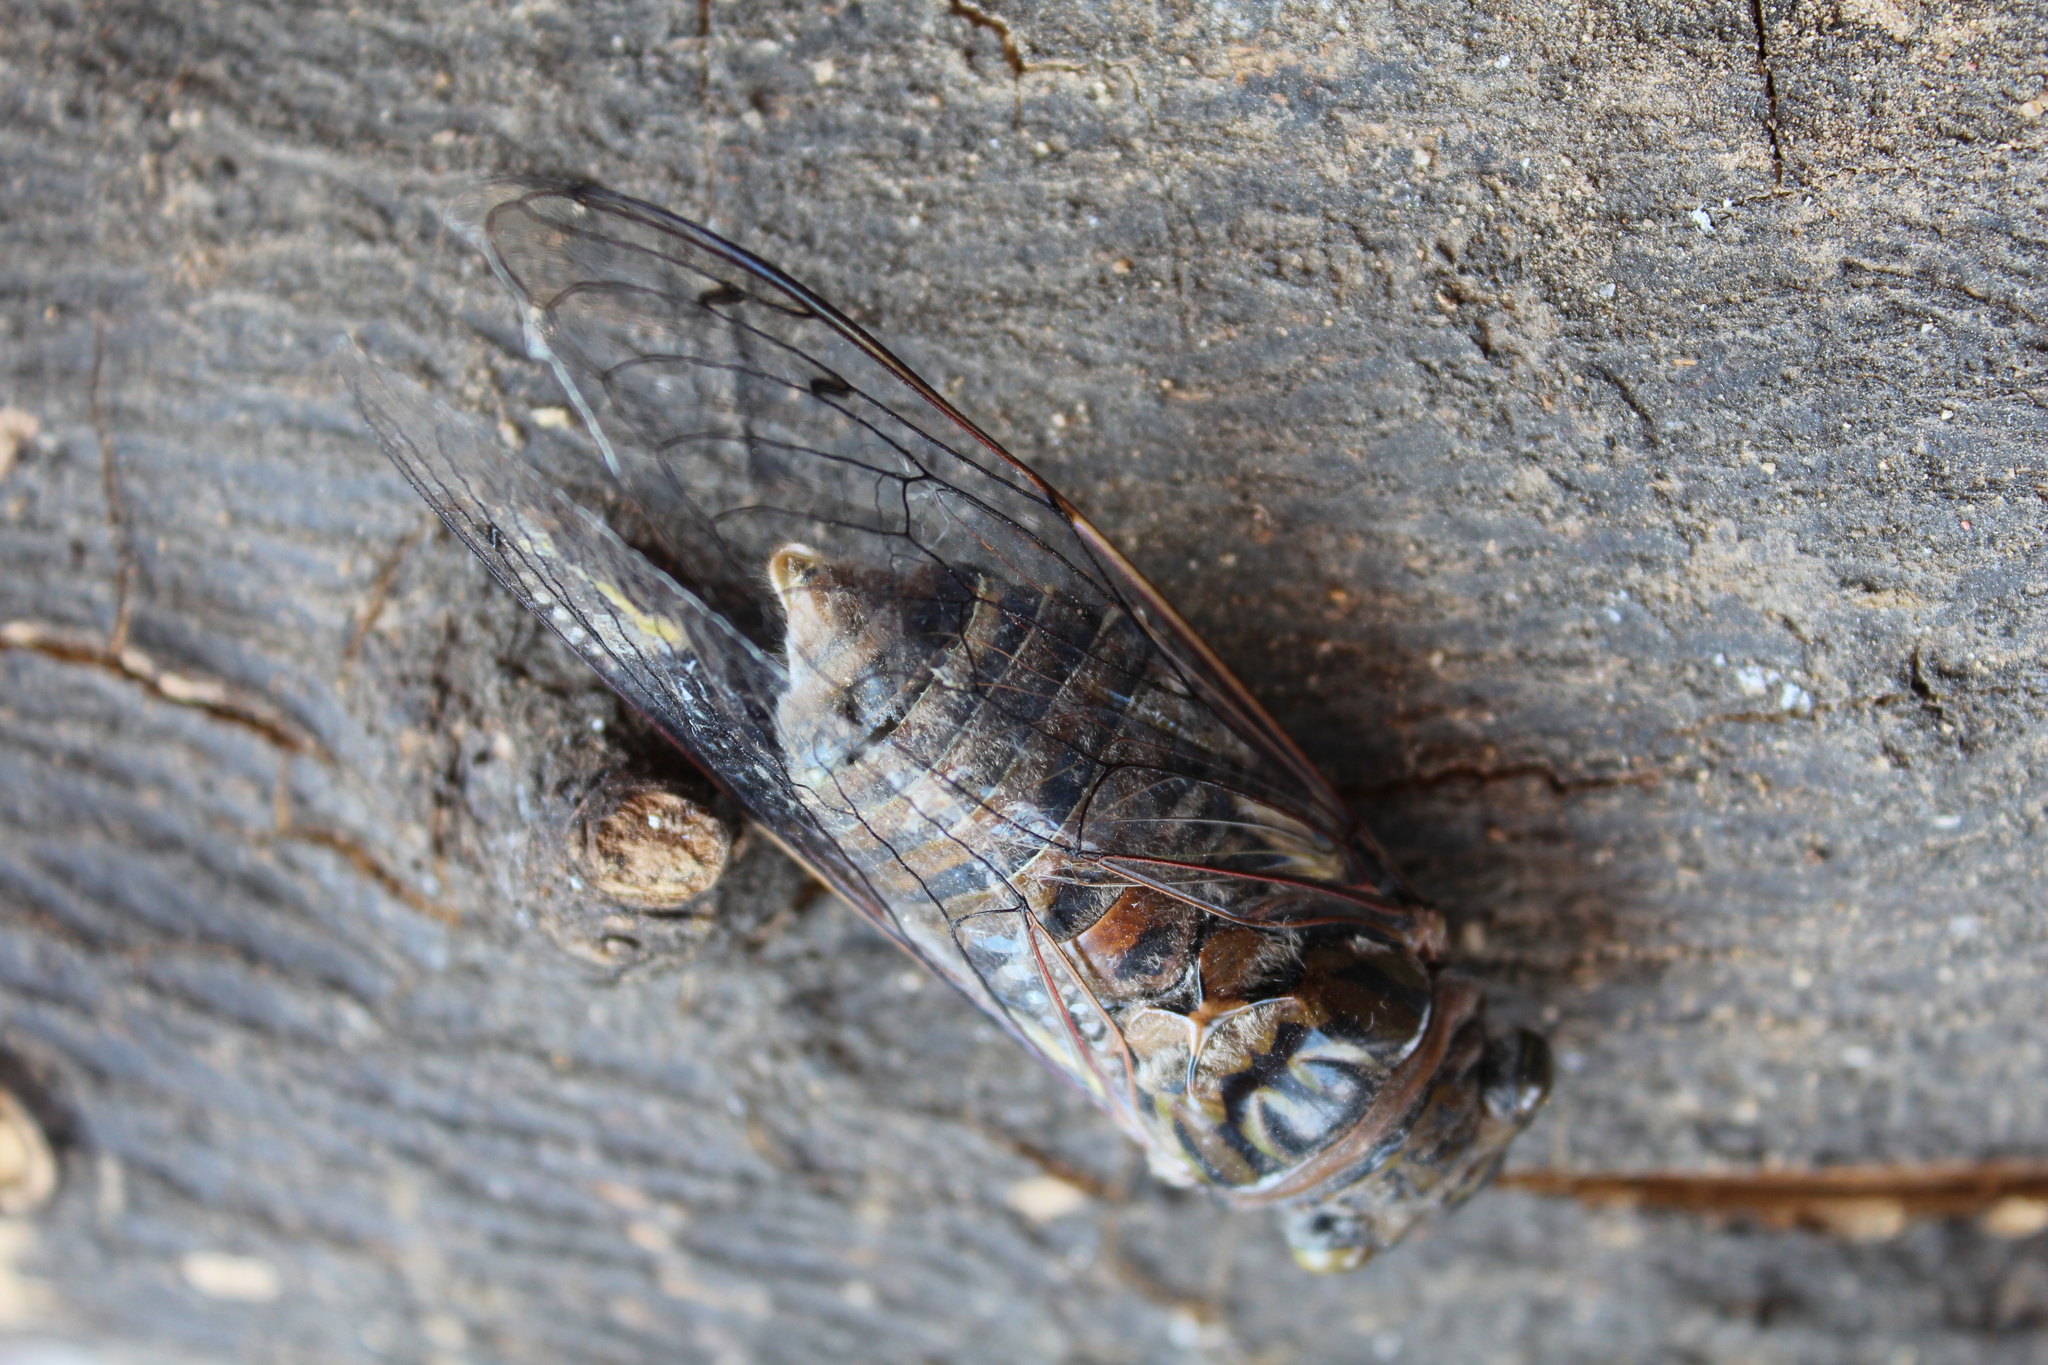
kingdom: Animalia
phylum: Arthropoda
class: Insecta
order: Hemiptera
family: Cicadidae
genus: Quesada
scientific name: Quesada gigas
